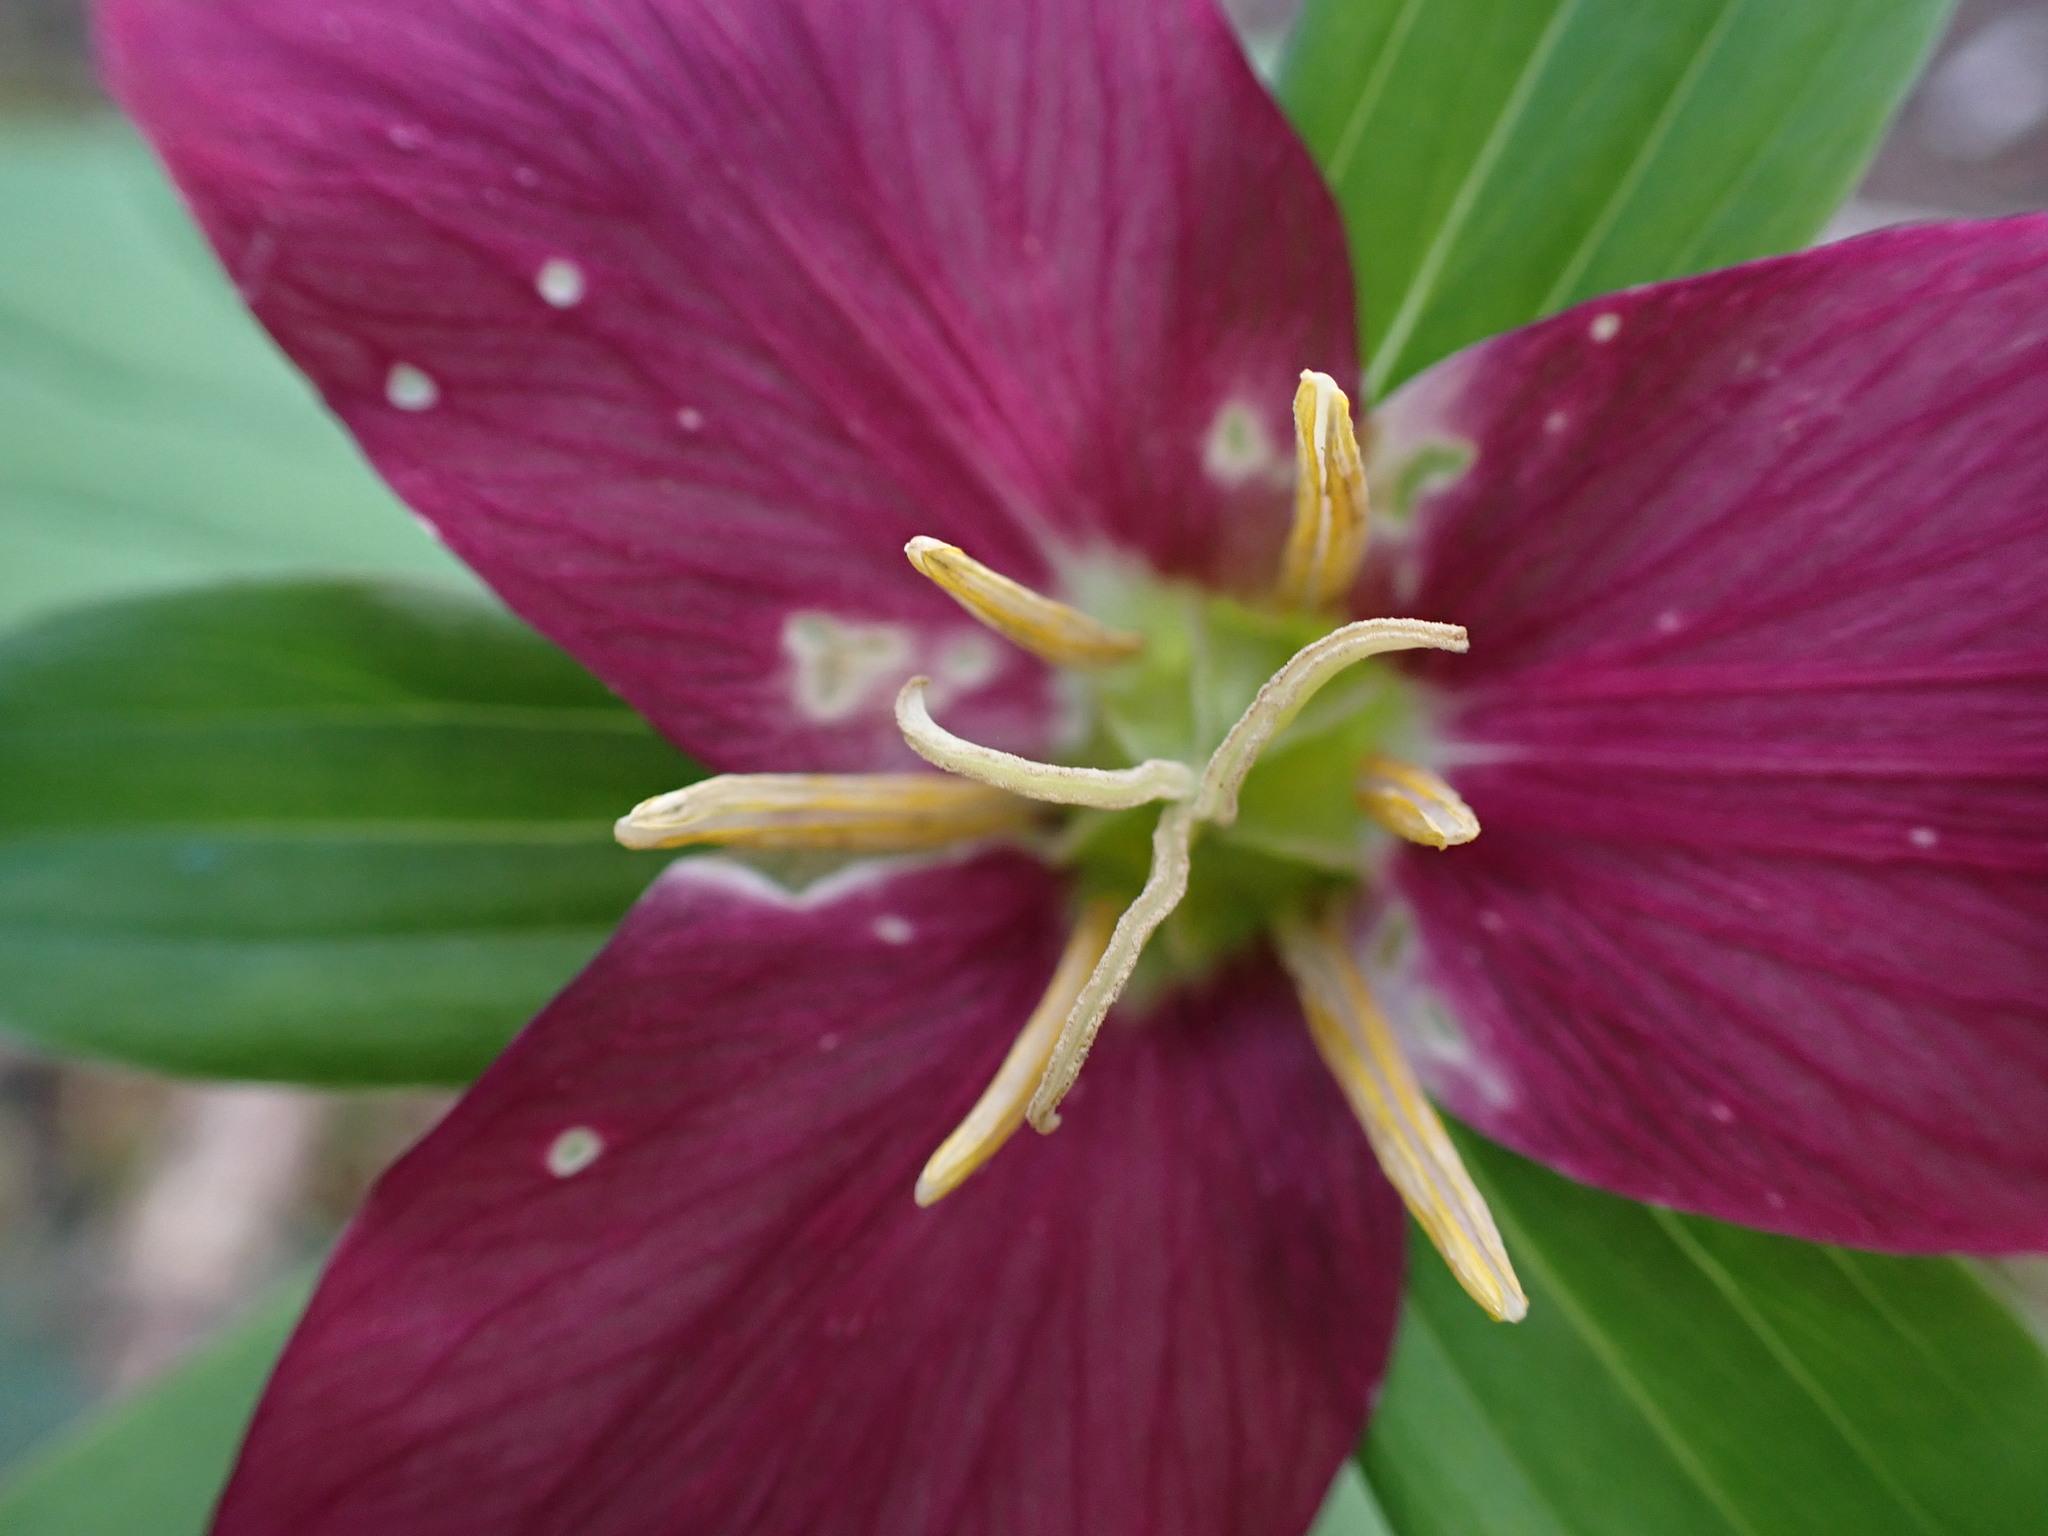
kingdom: Plantae
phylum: Tracheophyta
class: Liliopsida
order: Liliales
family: Melanthiaceae
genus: Trillium
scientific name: Trillium ovatum
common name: Pacific trillium
